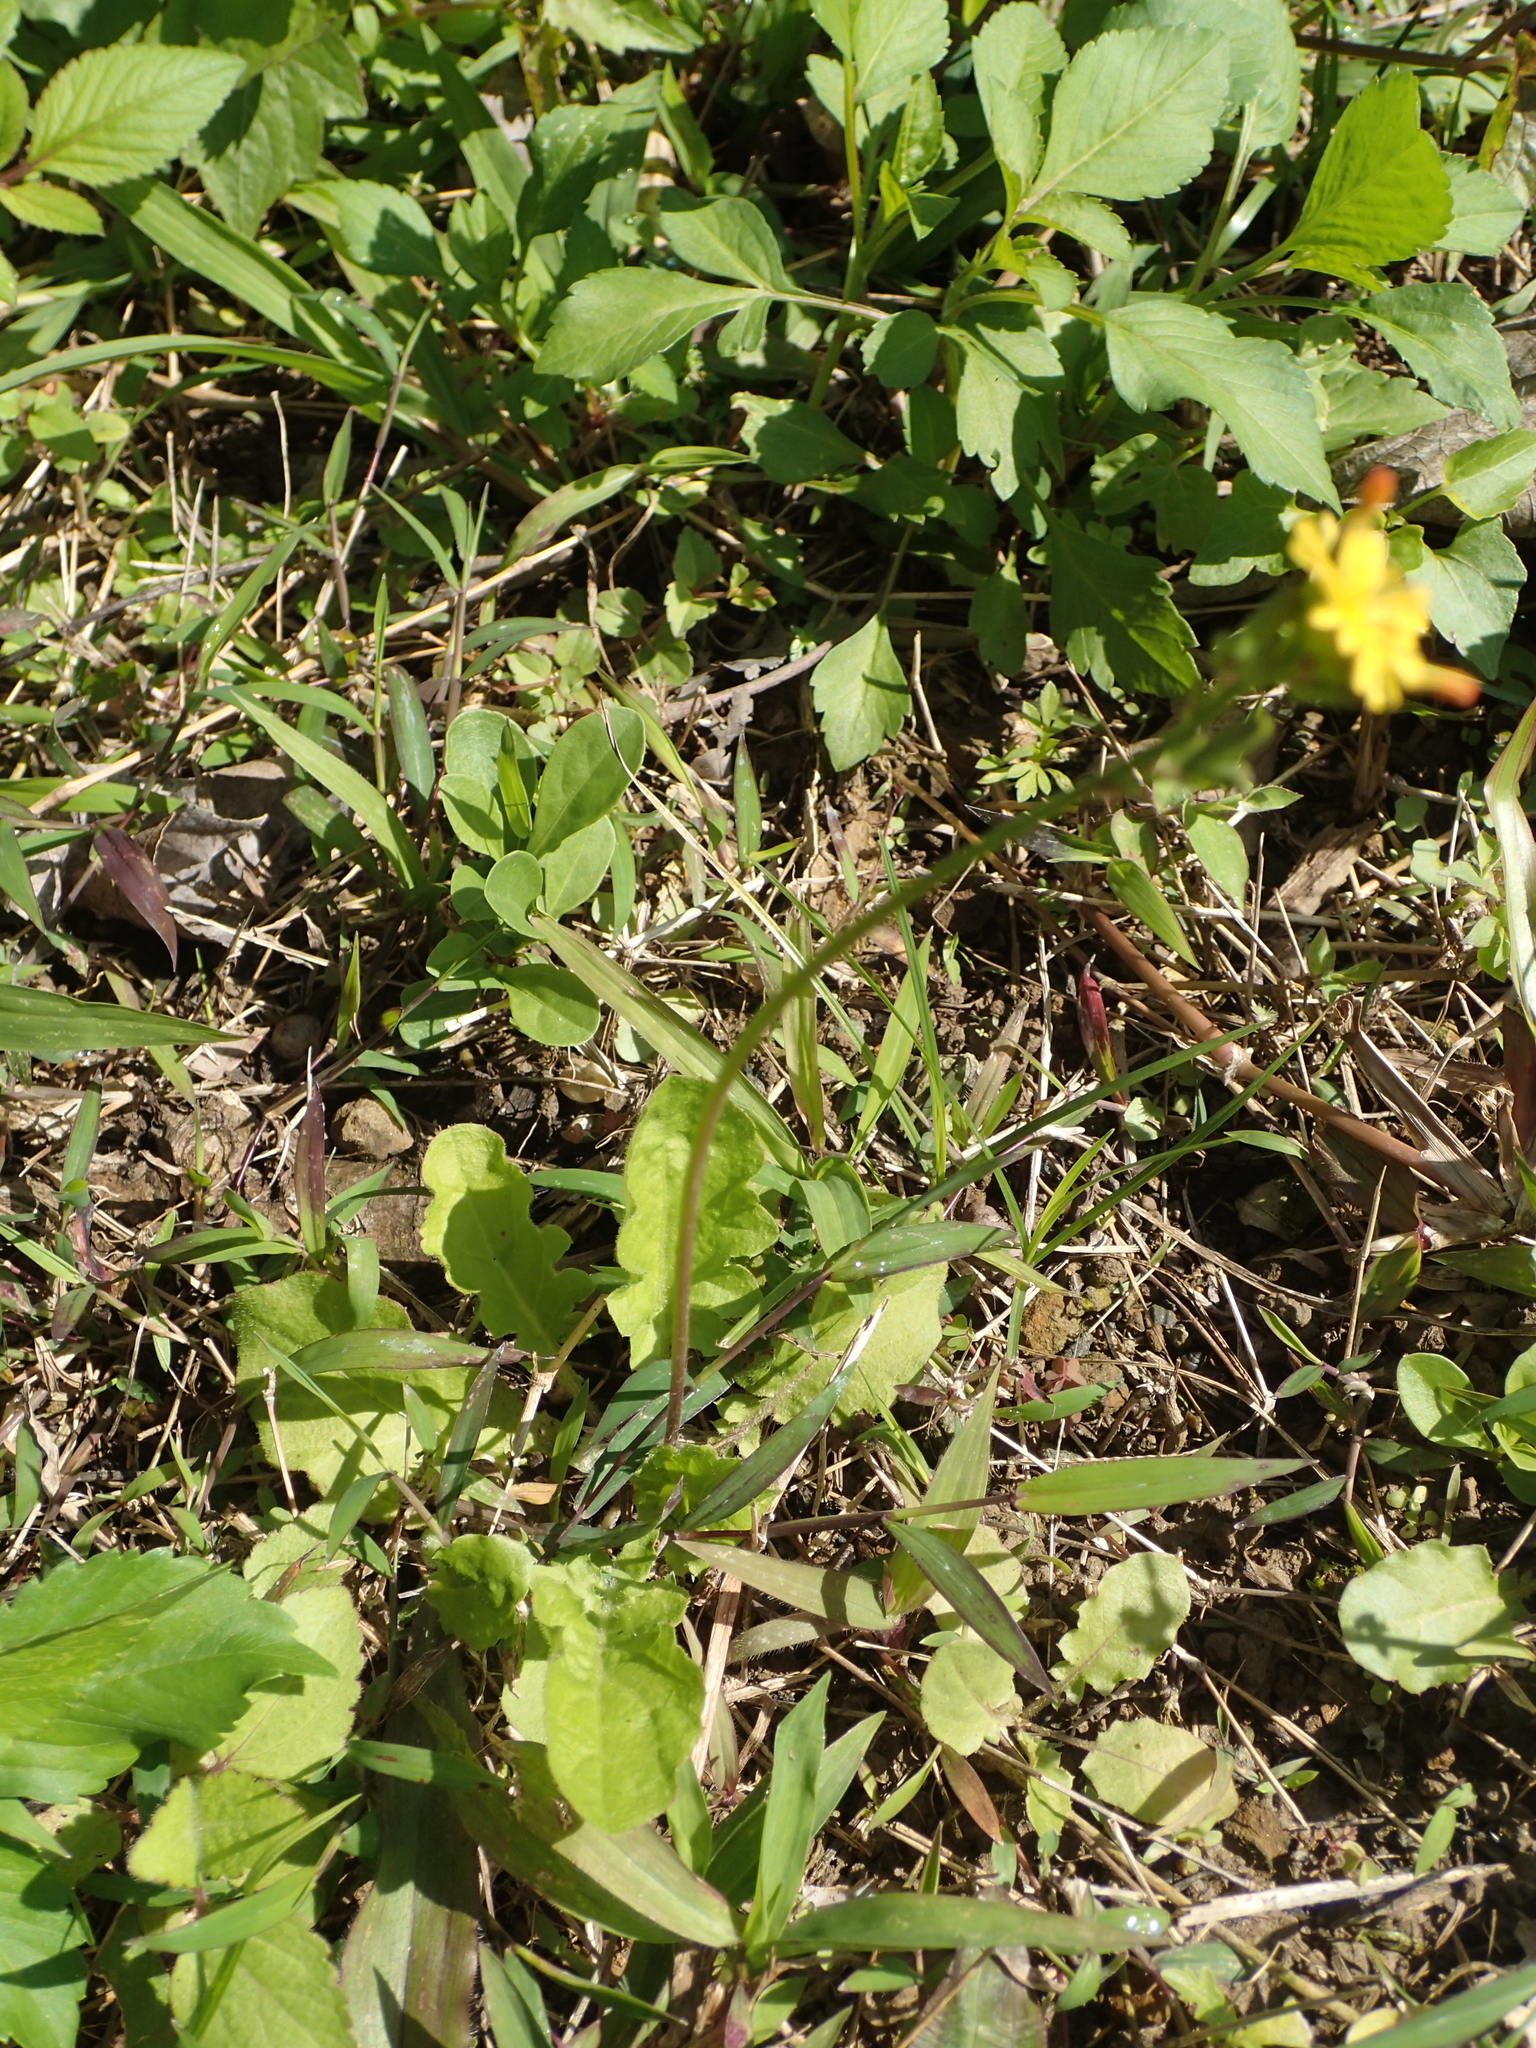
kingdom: Plantae
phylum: Tracheophyta
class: Magnoliopsida
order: Asterales
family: Asteraceae
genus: Youngia
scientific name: Youngia japonica
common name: Oriental false hawksbeard
